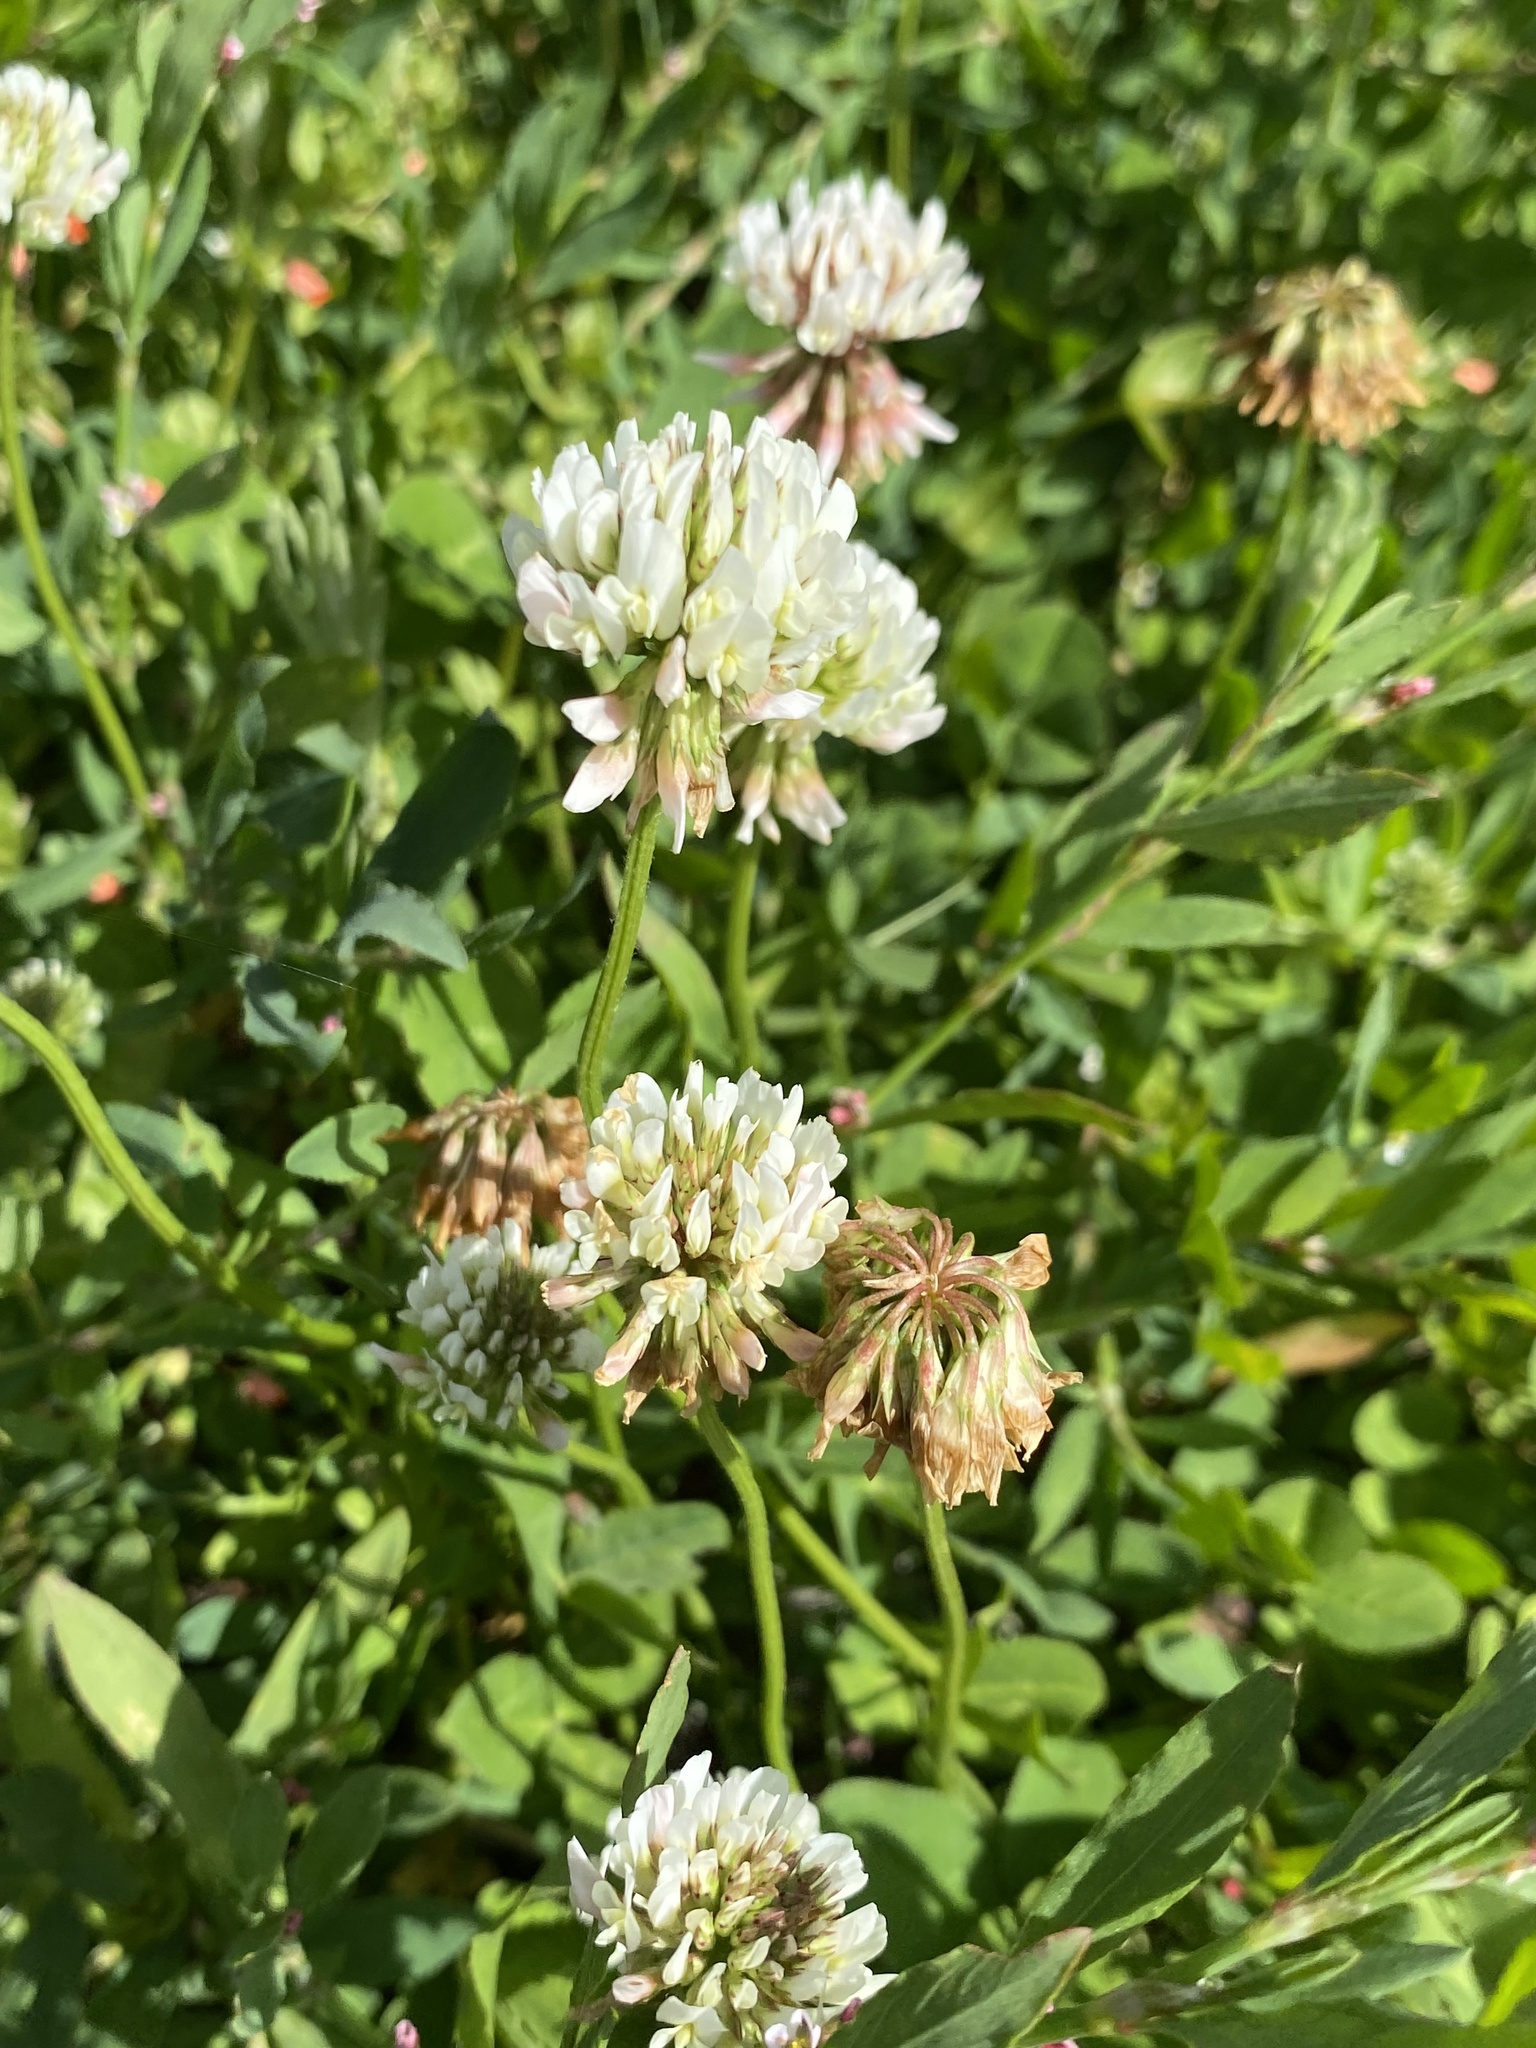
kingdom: Plantae
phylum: Tracheophyta
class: Magnoliopsida
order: Fabales
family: Fabaceae
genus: Trifolium
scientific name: Trifolium repens
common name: White clover
